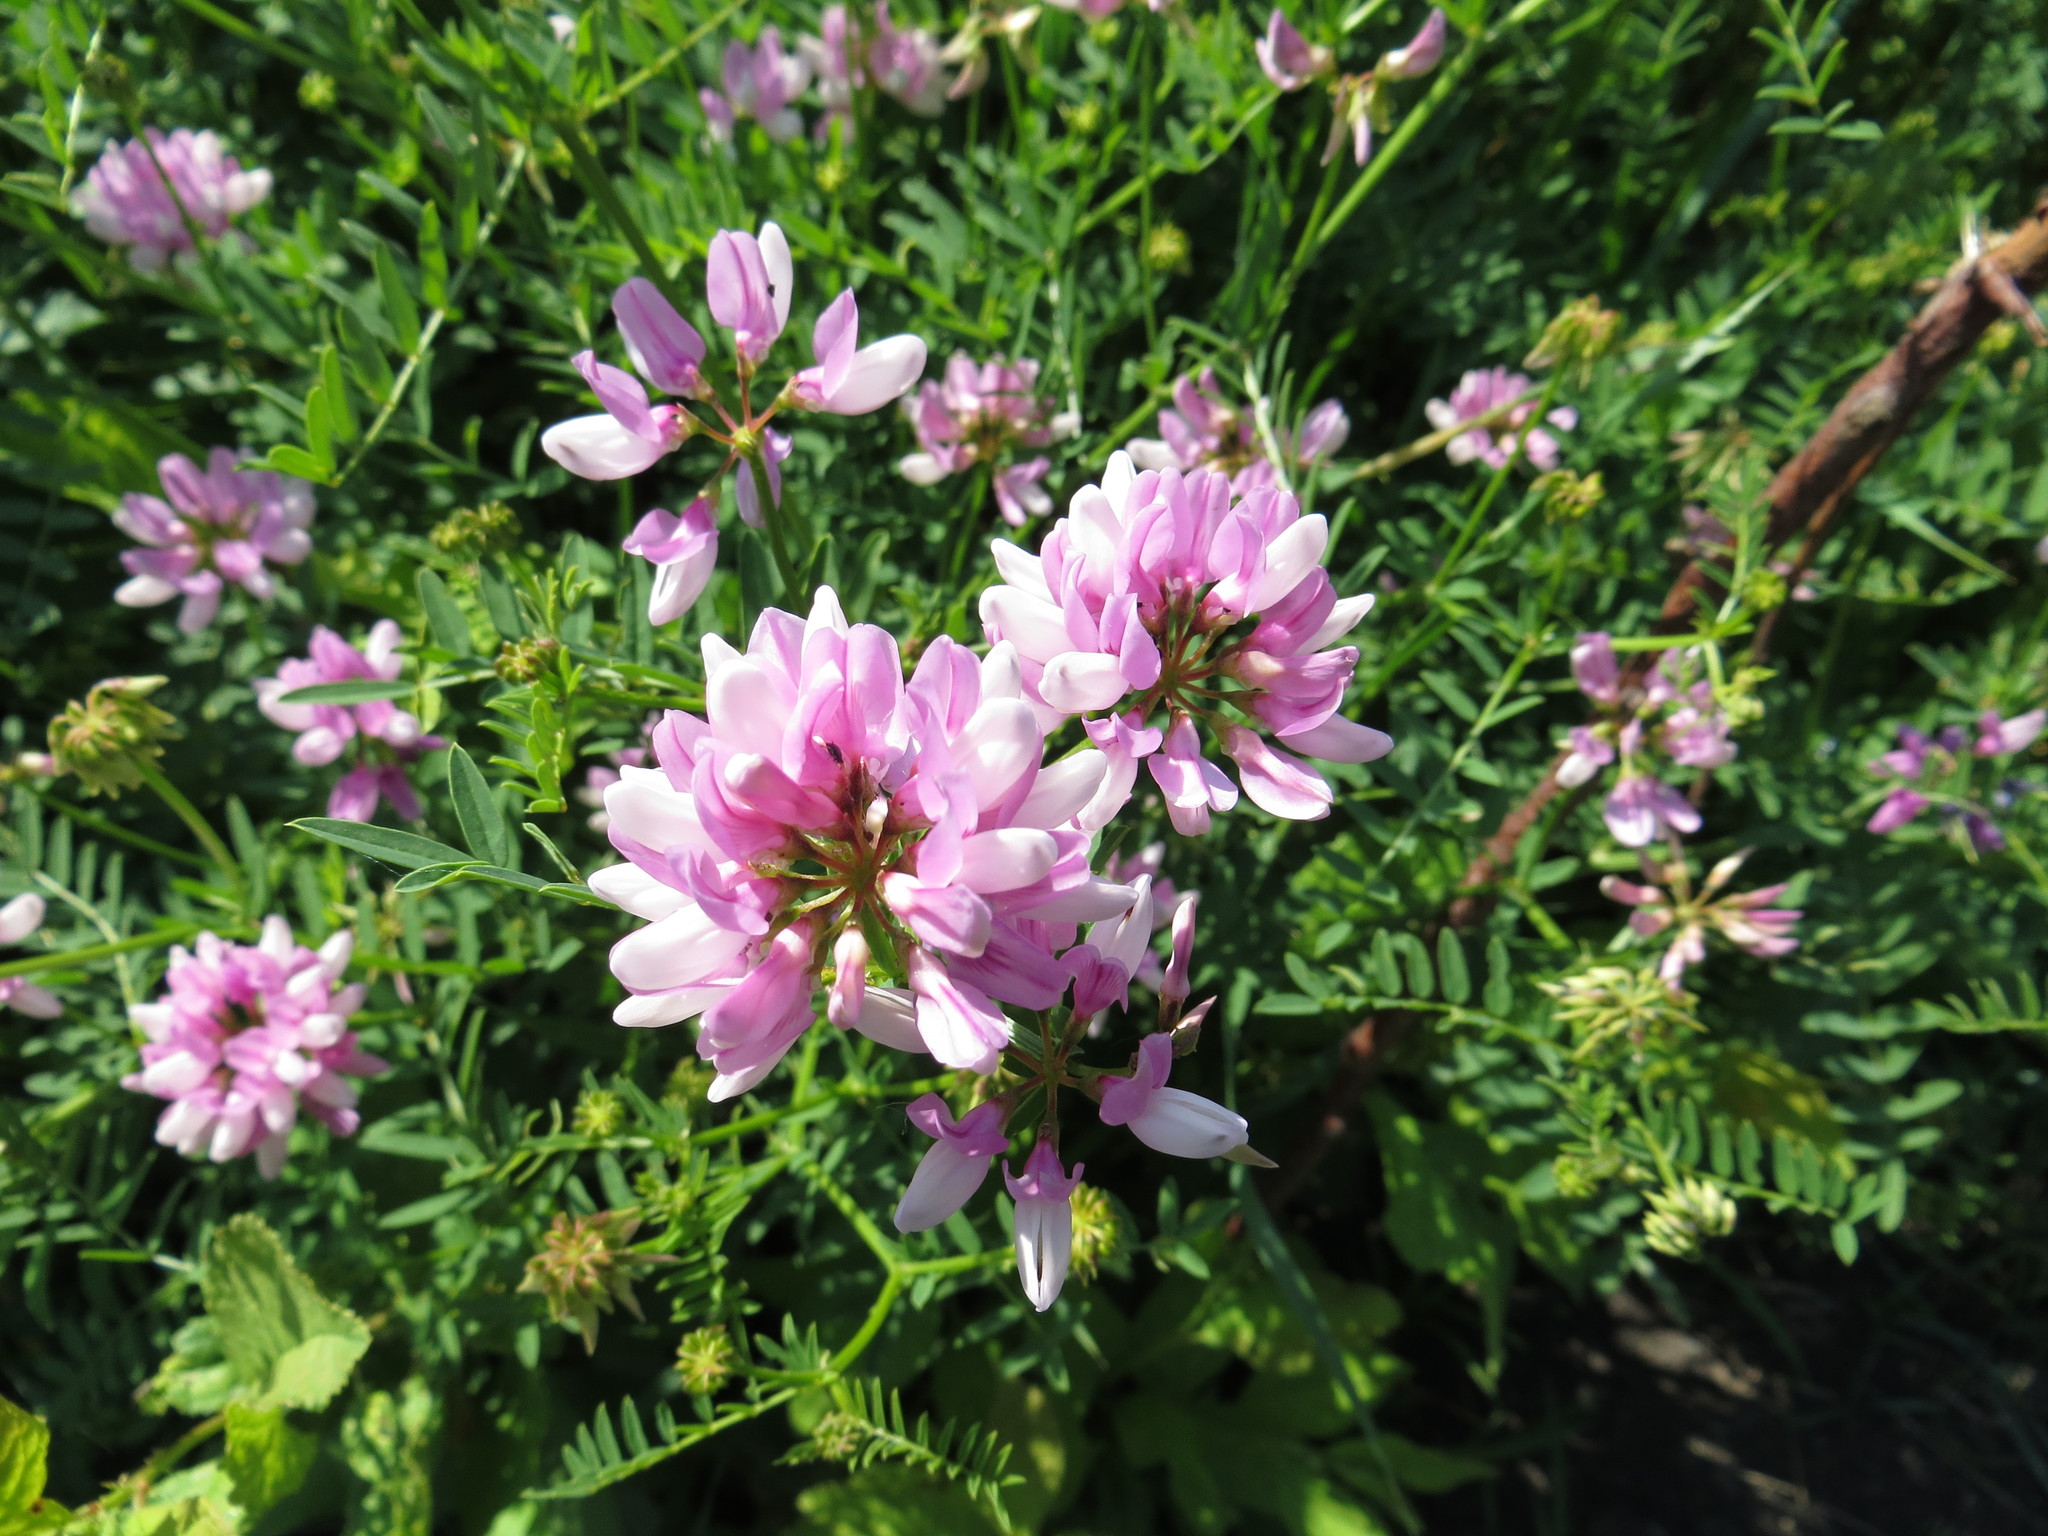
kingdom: Plantae
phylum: Tracheophyta
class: Magnoliopsida
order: Fabales
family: Fabaceae
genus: Coronilla
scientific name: Coronilla varia
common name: Crownvetch
